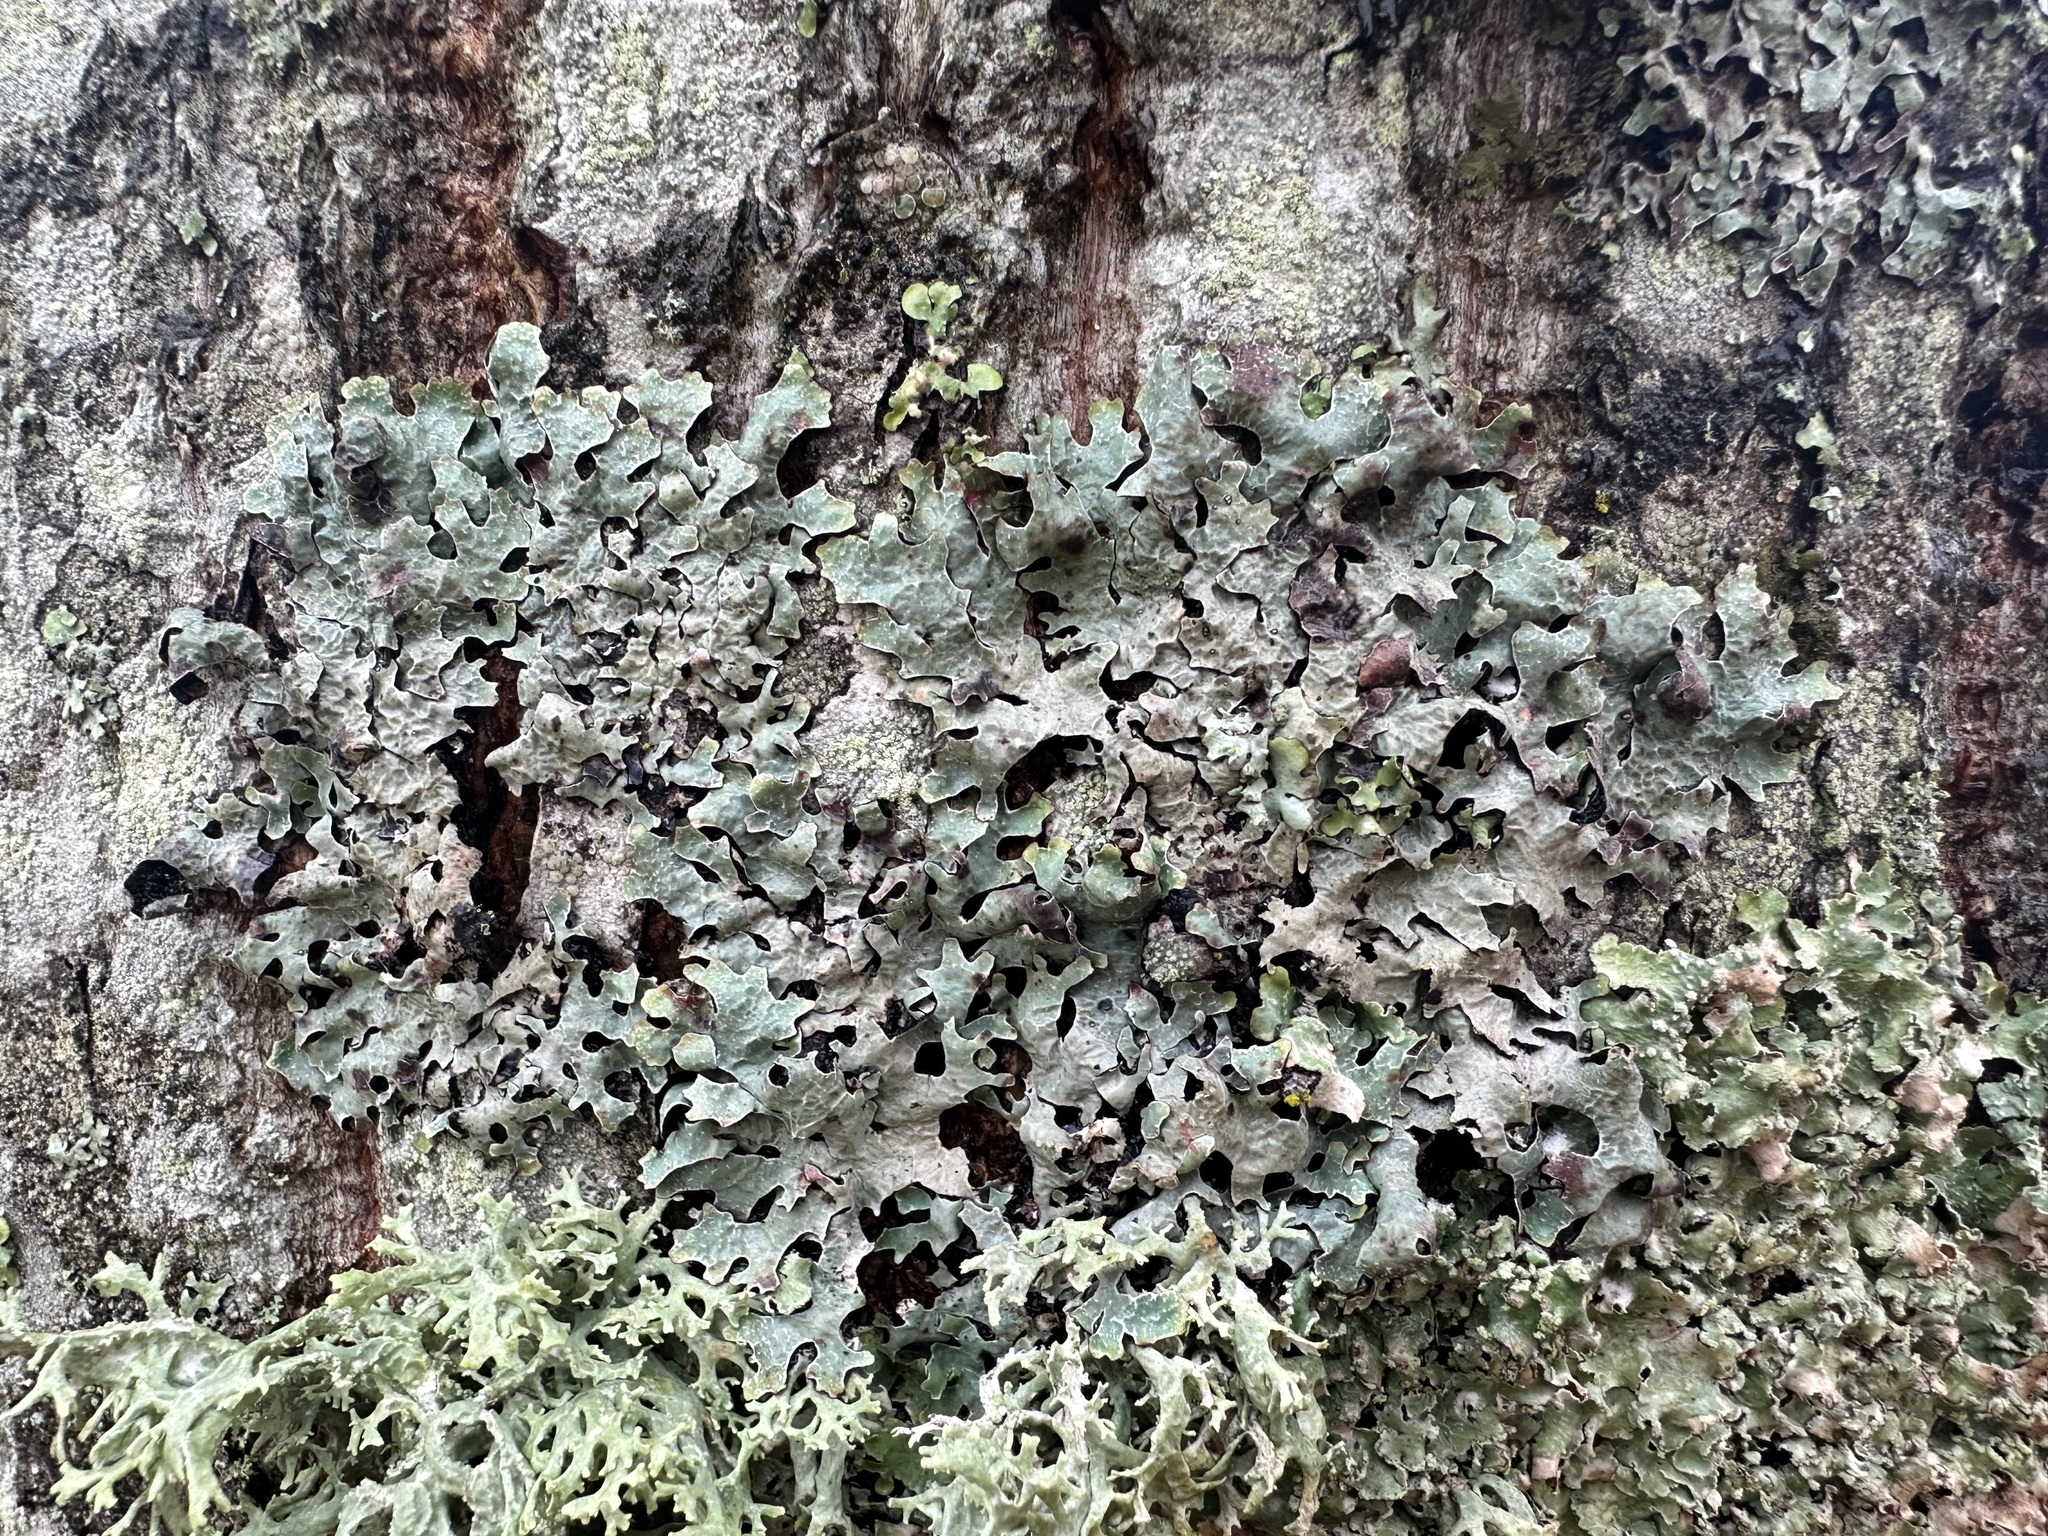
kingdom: Fungi
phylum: Ascomycota
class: Lecanoromycetes
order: Lecanorales
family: Parmeliaceae
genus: Parmelia
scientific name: Parmelia sulcata
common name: Netted shield lichen
